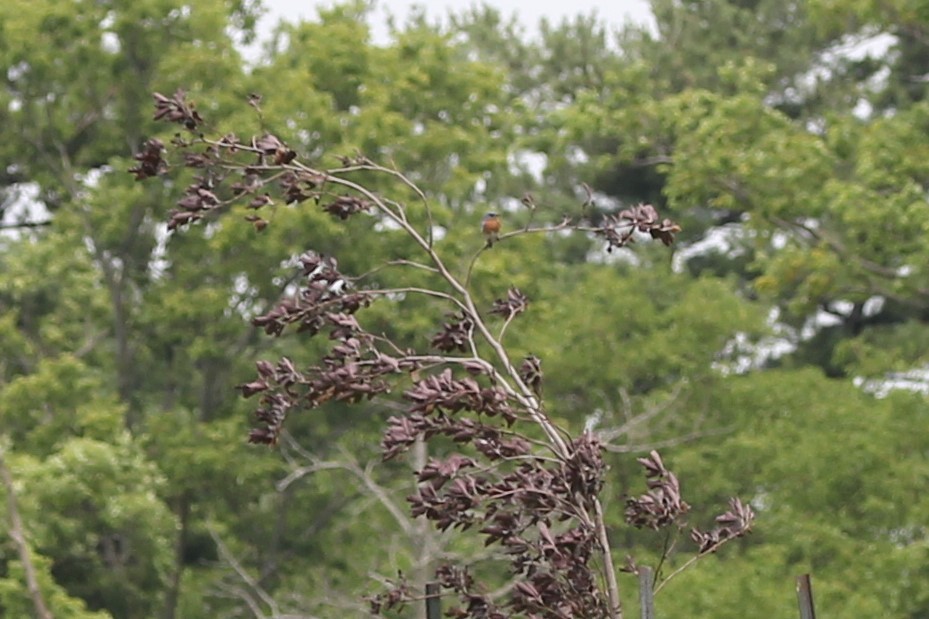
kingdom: Animalia
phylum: Chordata
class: Aves
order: Passeriformes
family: Turdidae
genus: Sialia
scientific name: Sialia sialis
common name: Eastern bluebird
